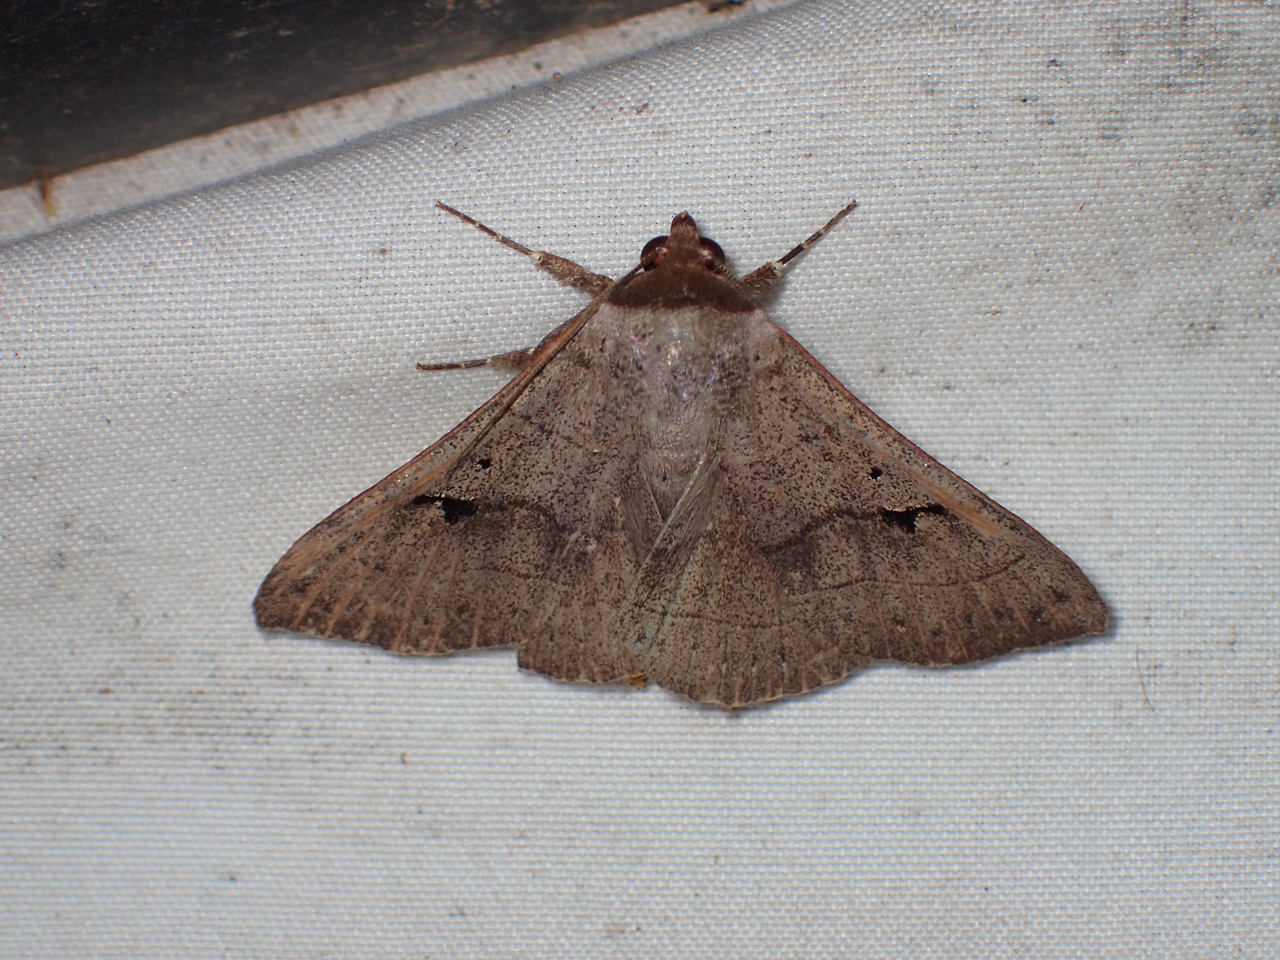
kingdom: Animalia
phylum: Arthropoda
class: Insecta
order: Lepidoptera
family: Erebidae
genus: Panopoda
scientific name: Panopoda carneicosta
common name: Brown panopoda moth
